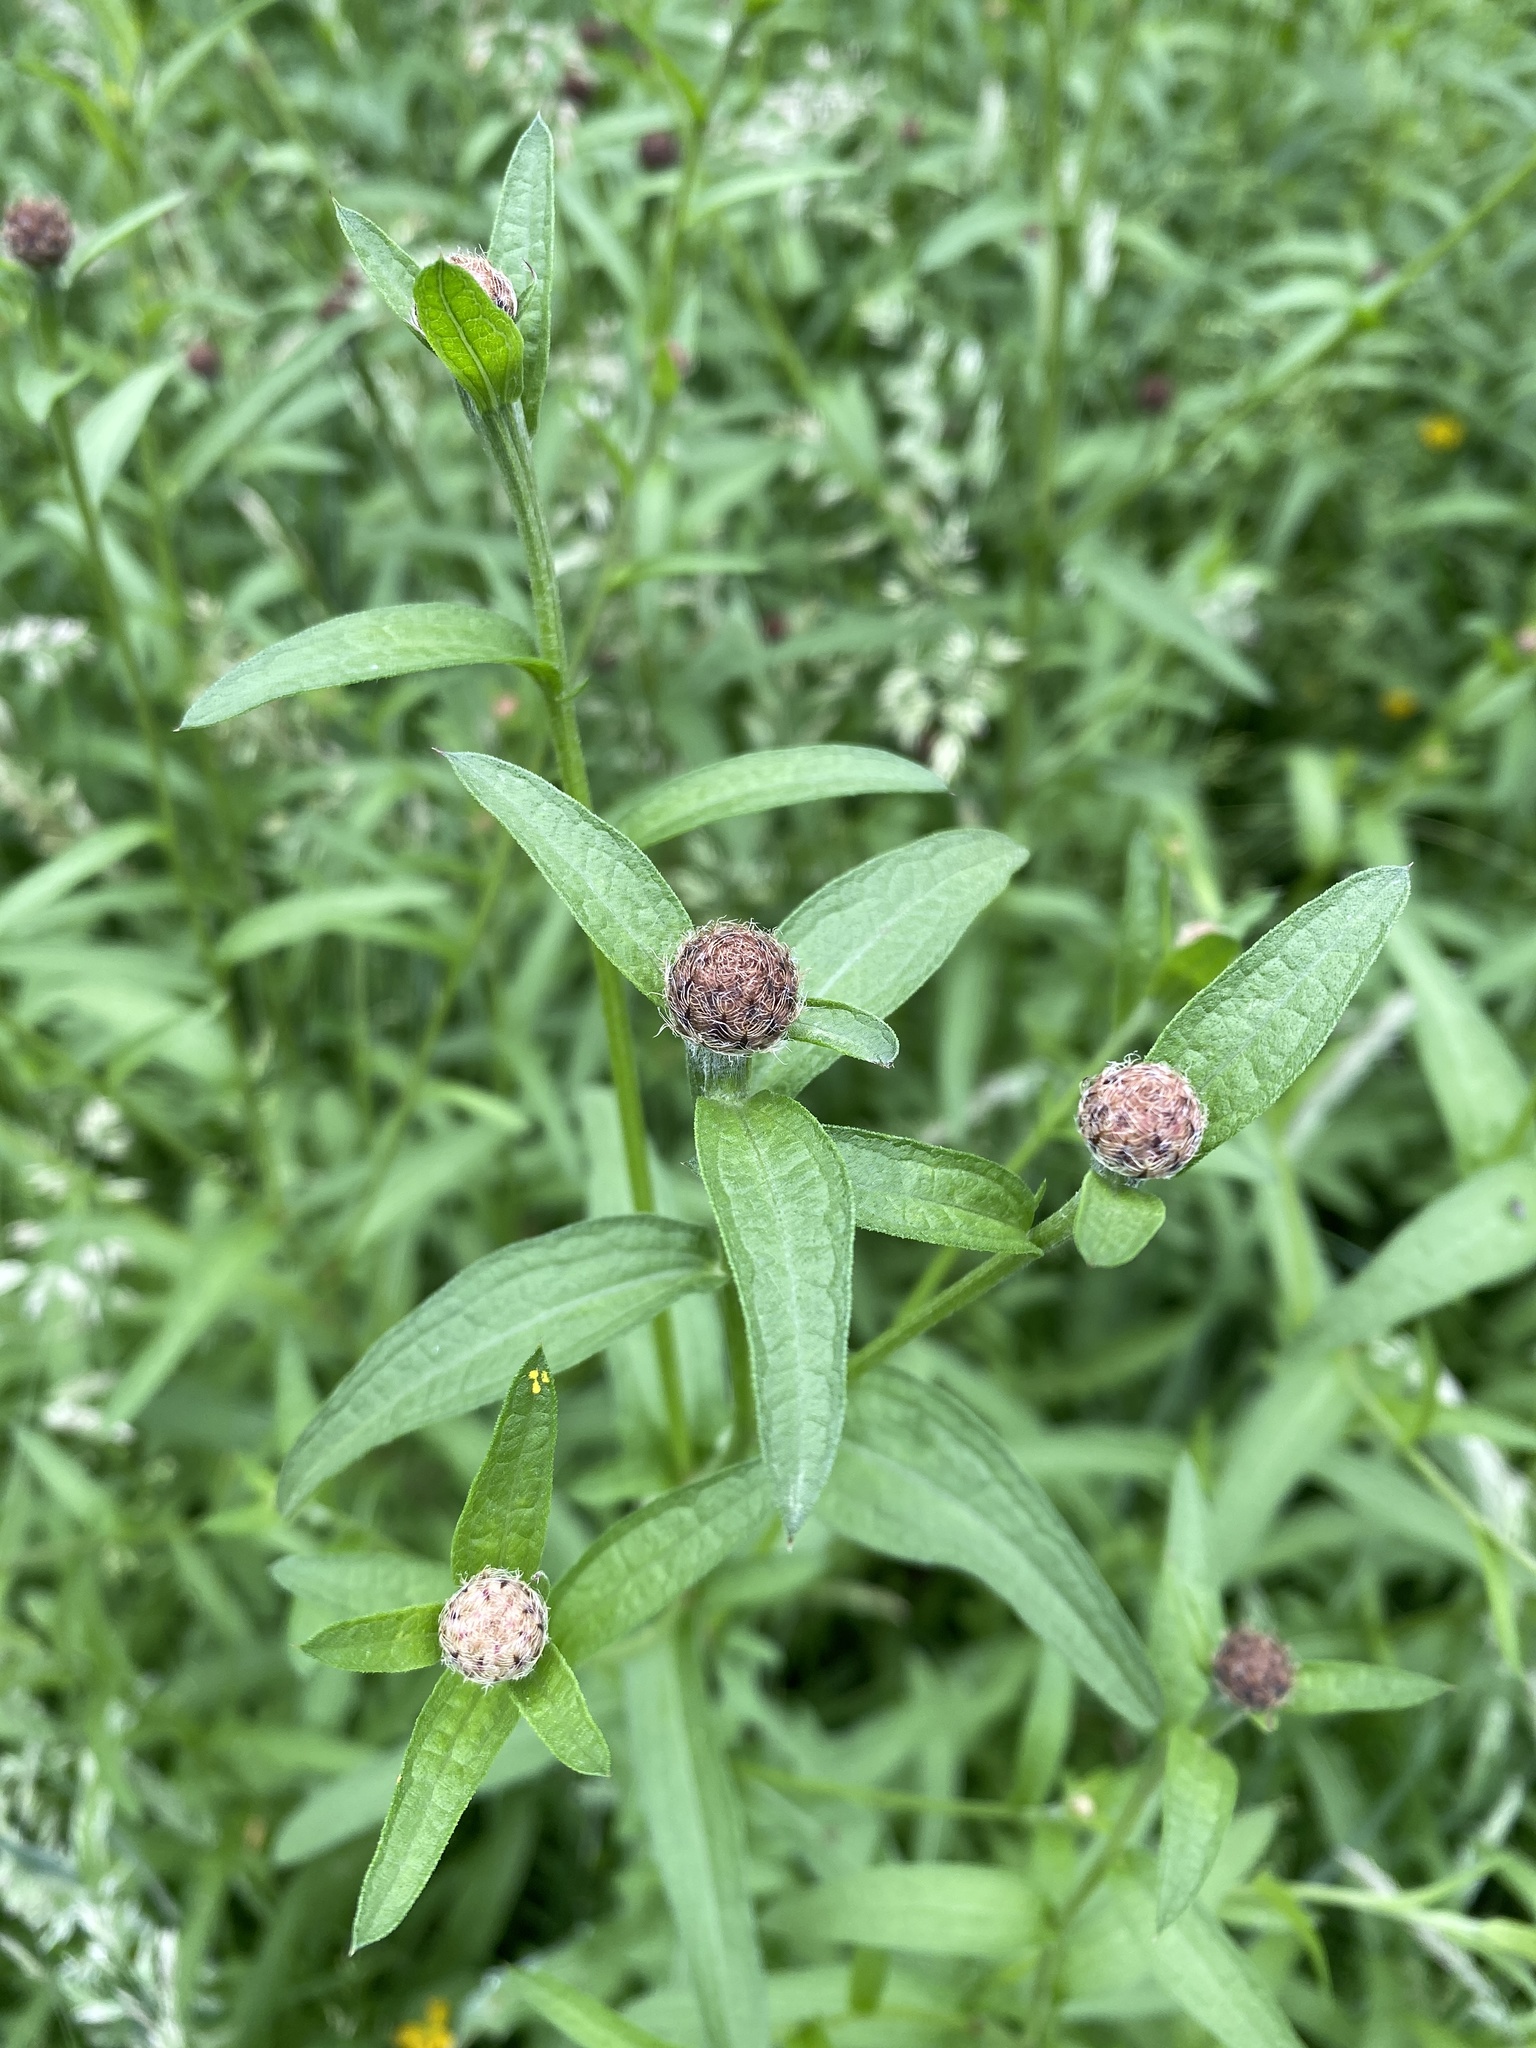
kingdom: Plantae
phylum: Tracheophyta
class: Magnoliopsida
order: Asterales
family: Asteraceae
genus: Centaurea
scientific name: Centaurea nigra
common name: Lesser knapweed
